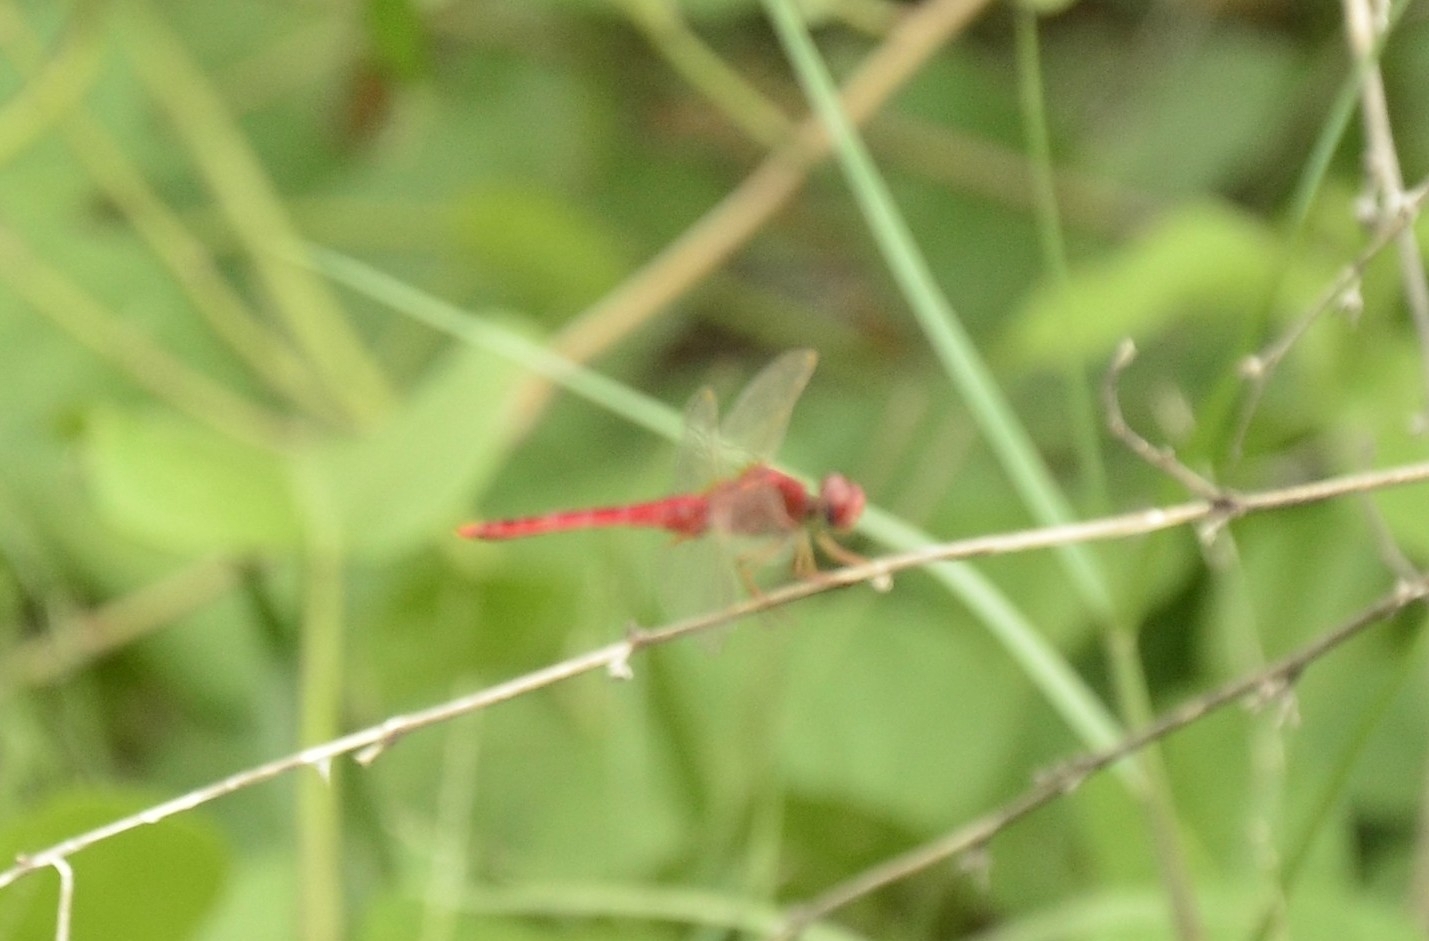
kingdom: Animalia
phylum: Arthropoda
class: Insecta
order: Odonata
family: Libellulidae
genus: Crocothemis
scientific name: Crocothemis servilia
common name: Scarlet skimmer
